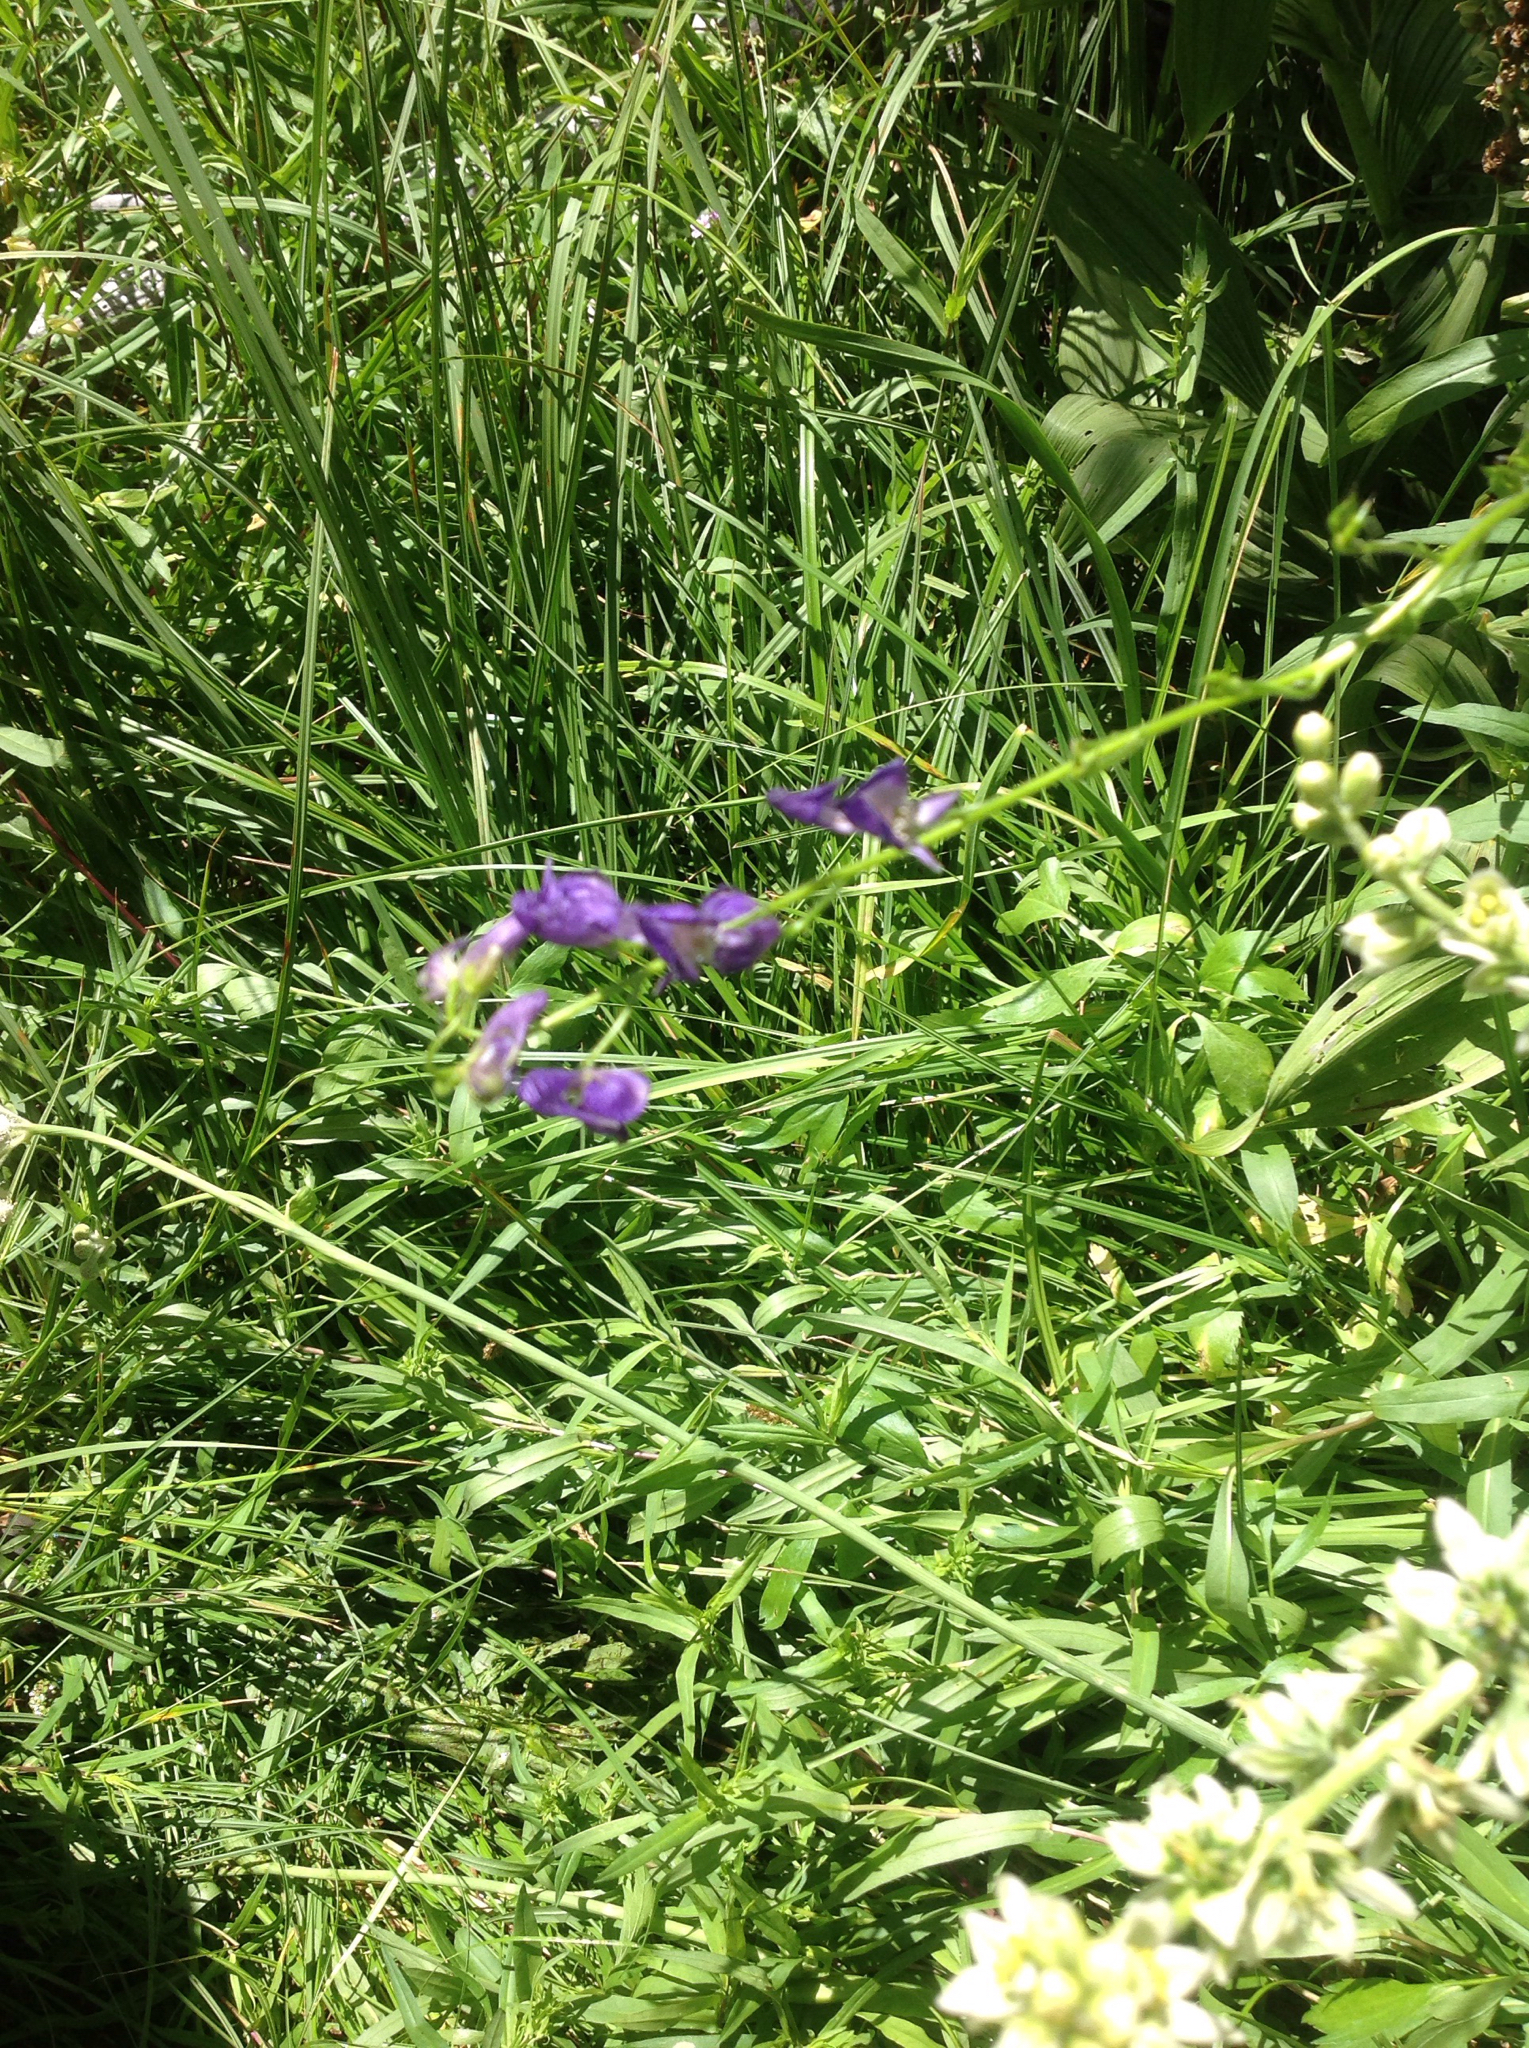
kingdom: Plantae
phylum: Tracheophyta
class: Magnoliopsida
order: Ranunculales
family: Ranunculaceae
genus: Aconitum
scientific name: Aconitum columbianum
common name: Columbia aconite
